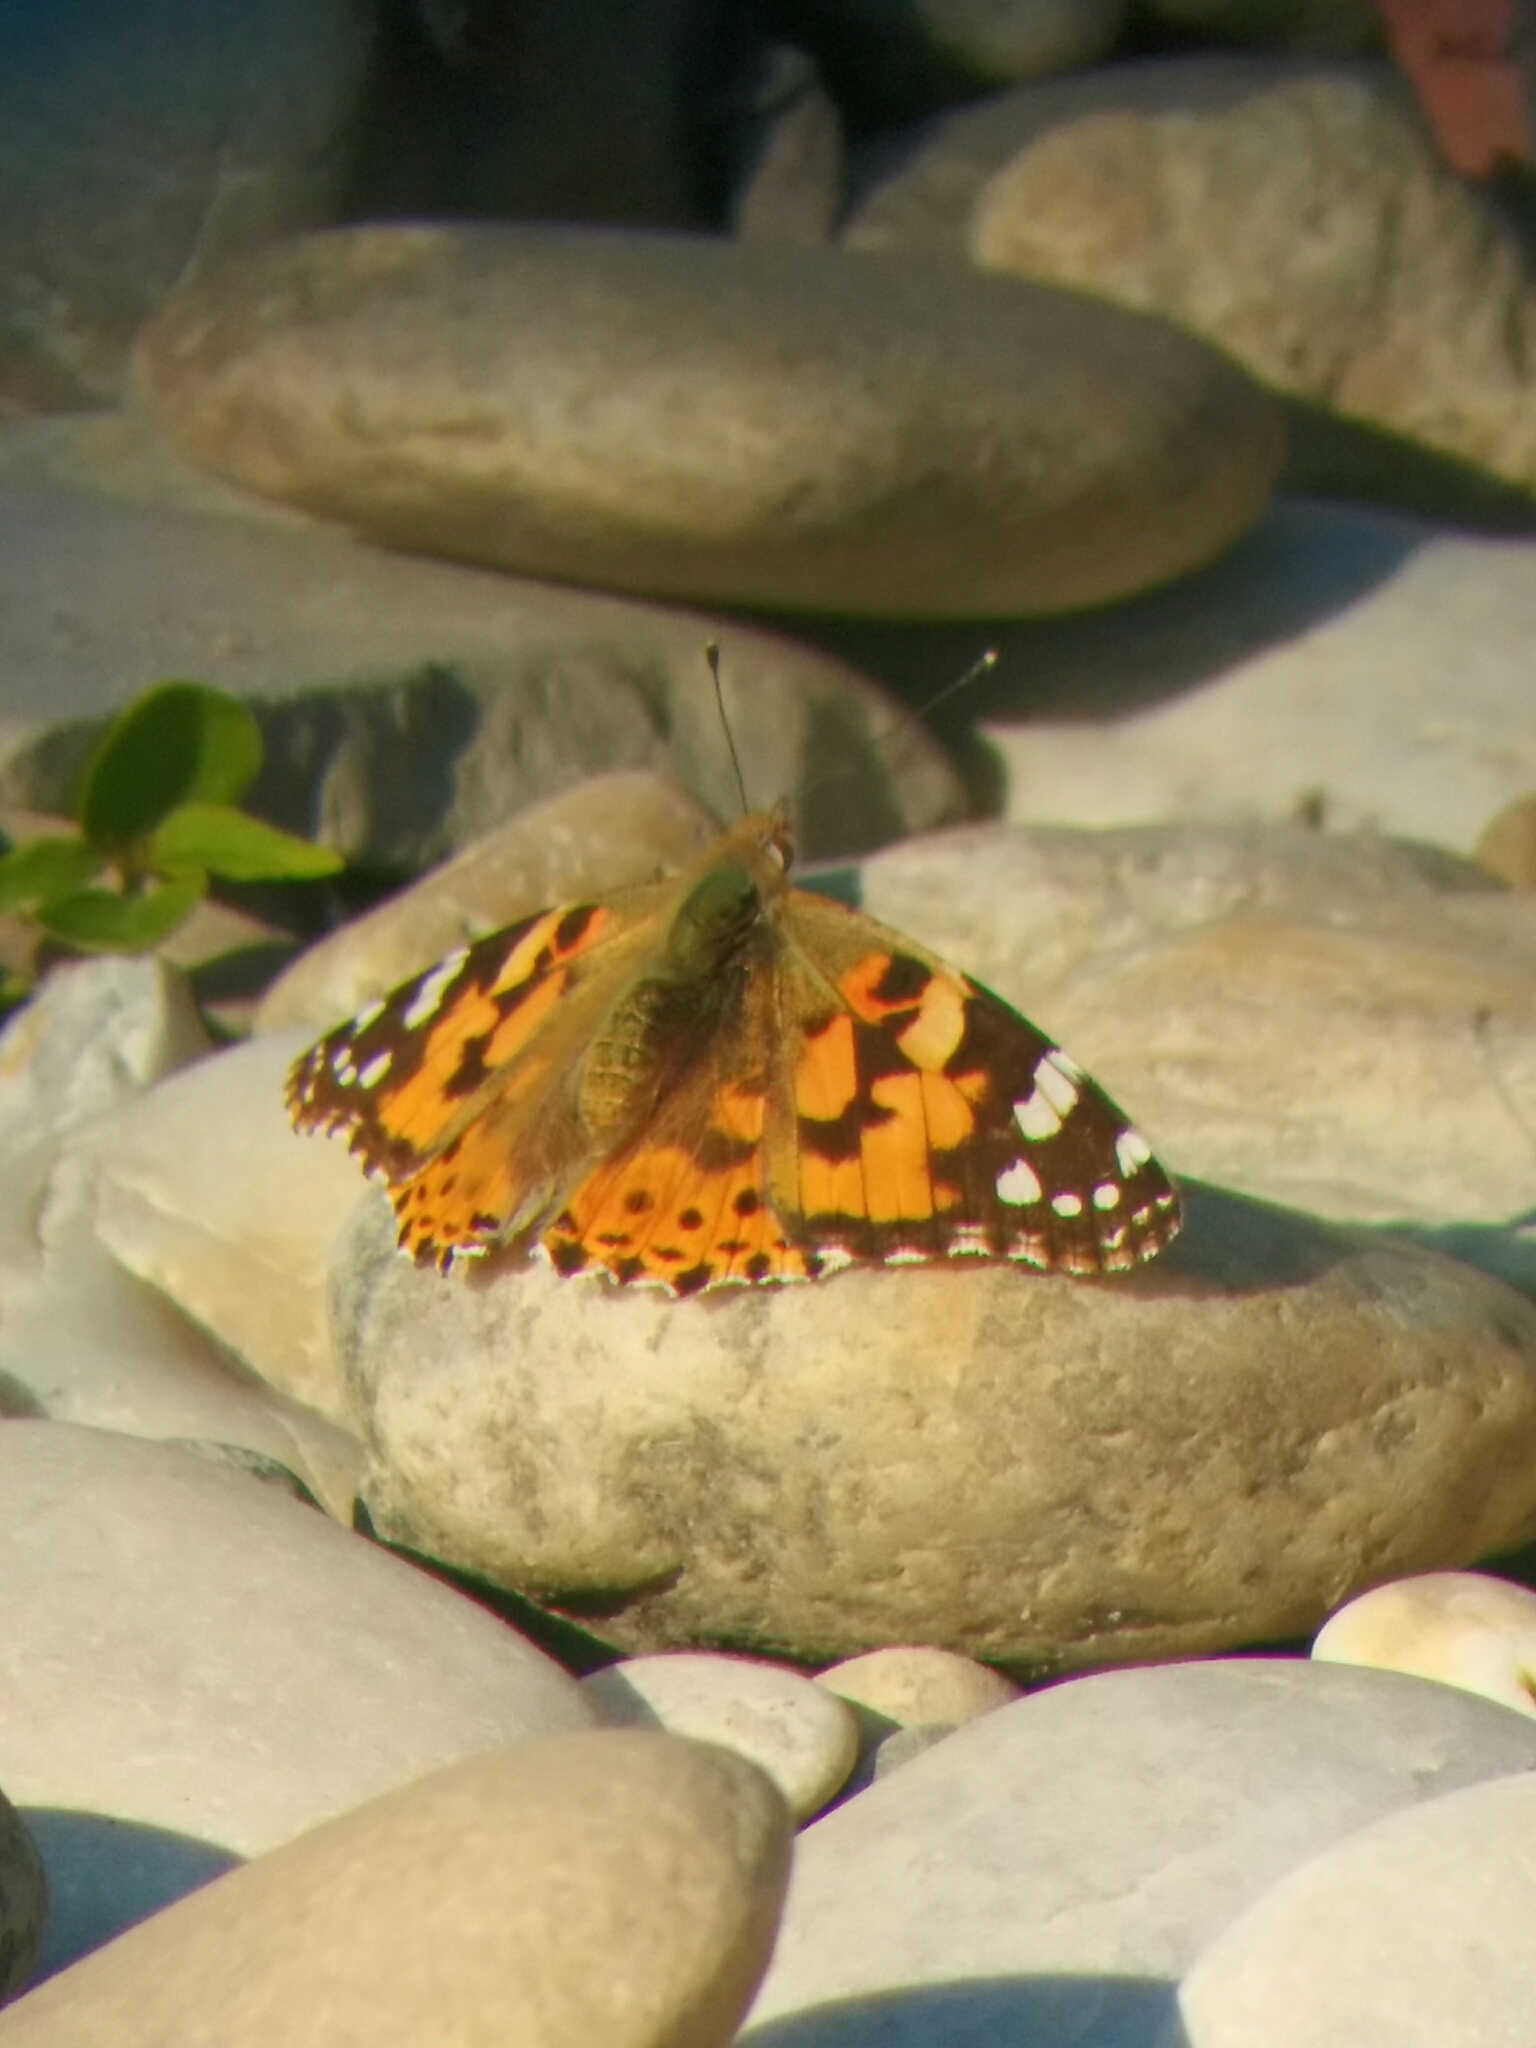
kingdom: Animalia
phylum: Arthropoda
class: Insecta
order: Lepidoptera
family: Nymphalidae
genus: Vanessa
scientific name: Vanessa cardui
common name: Painted lady
